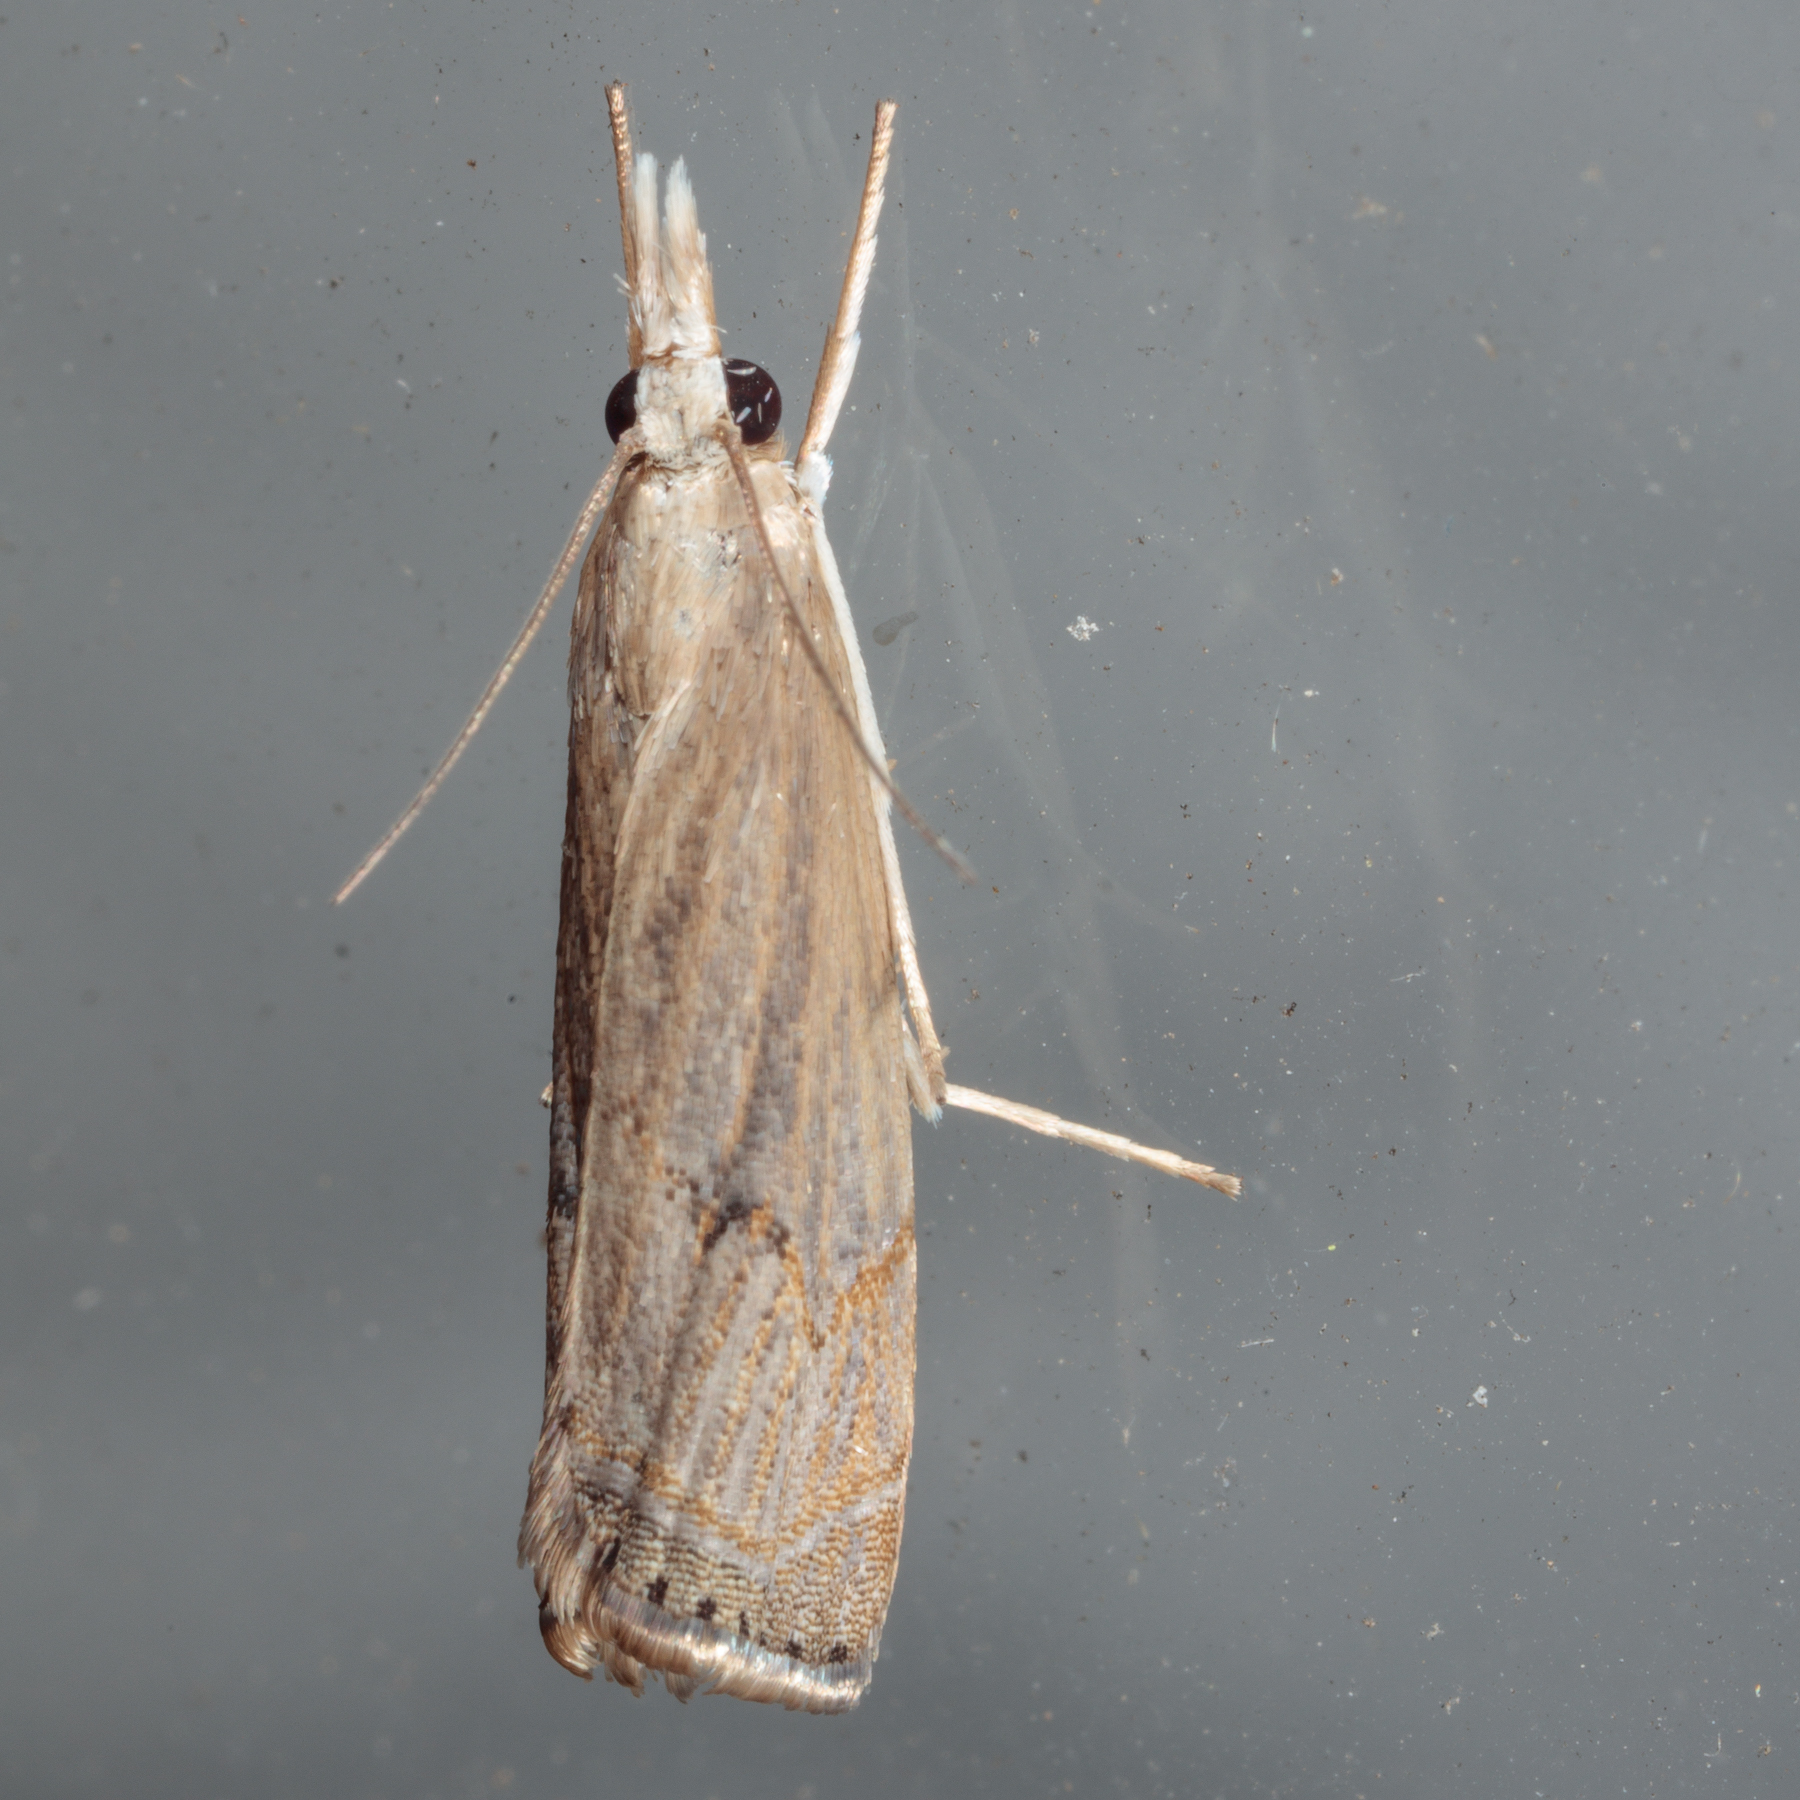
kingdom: Animalia
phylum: Arthropoda
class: Insecta
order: Lepidoptera
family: Crambidae
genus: Parapediasia
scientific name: Parapediasia teterellus
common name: Bluegrass webworm moth
